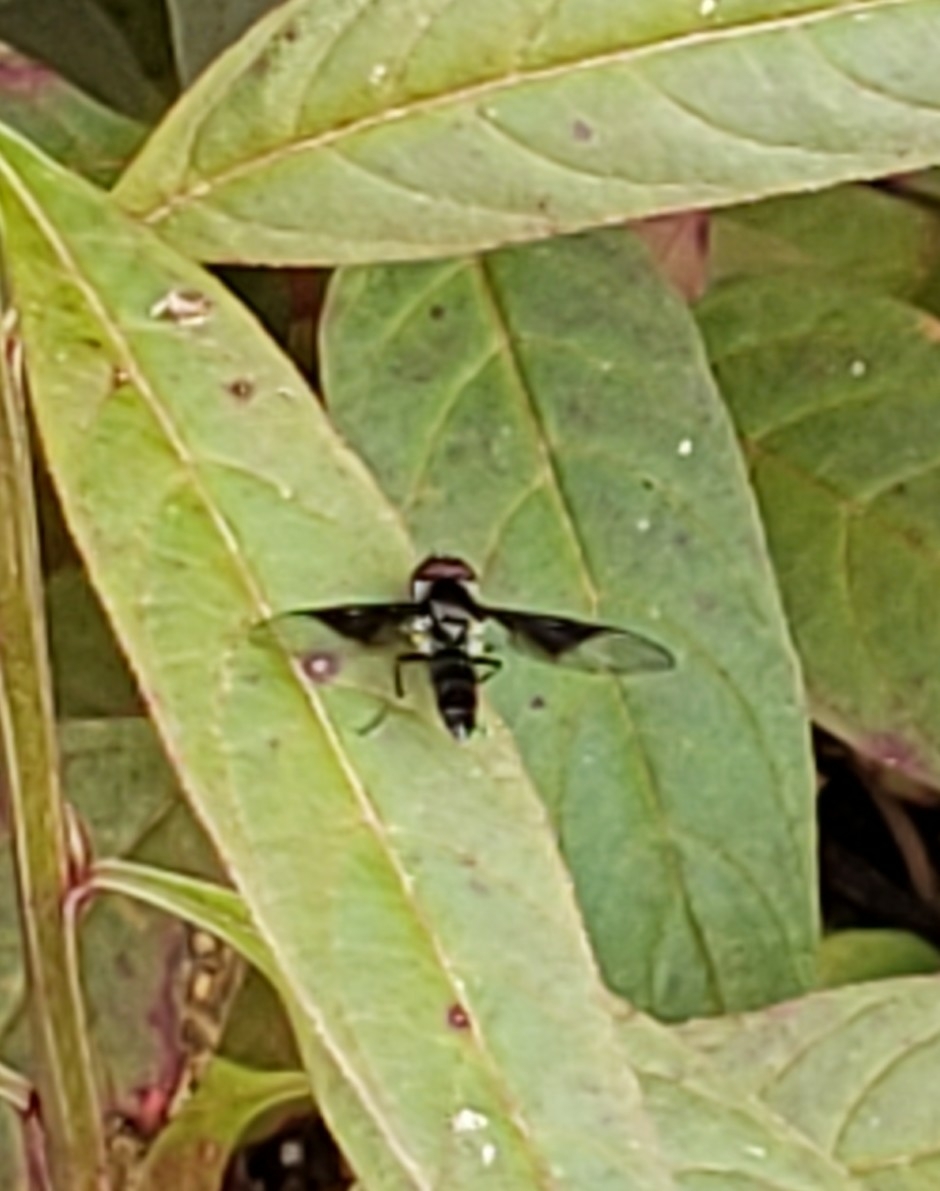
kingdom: Animalia
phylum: Arthropoda
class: Insecta
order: Diptera
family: Syrphidae
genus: Ocyptamus
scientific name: Ocyptamus dimidiatus
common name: Syrphid fly
